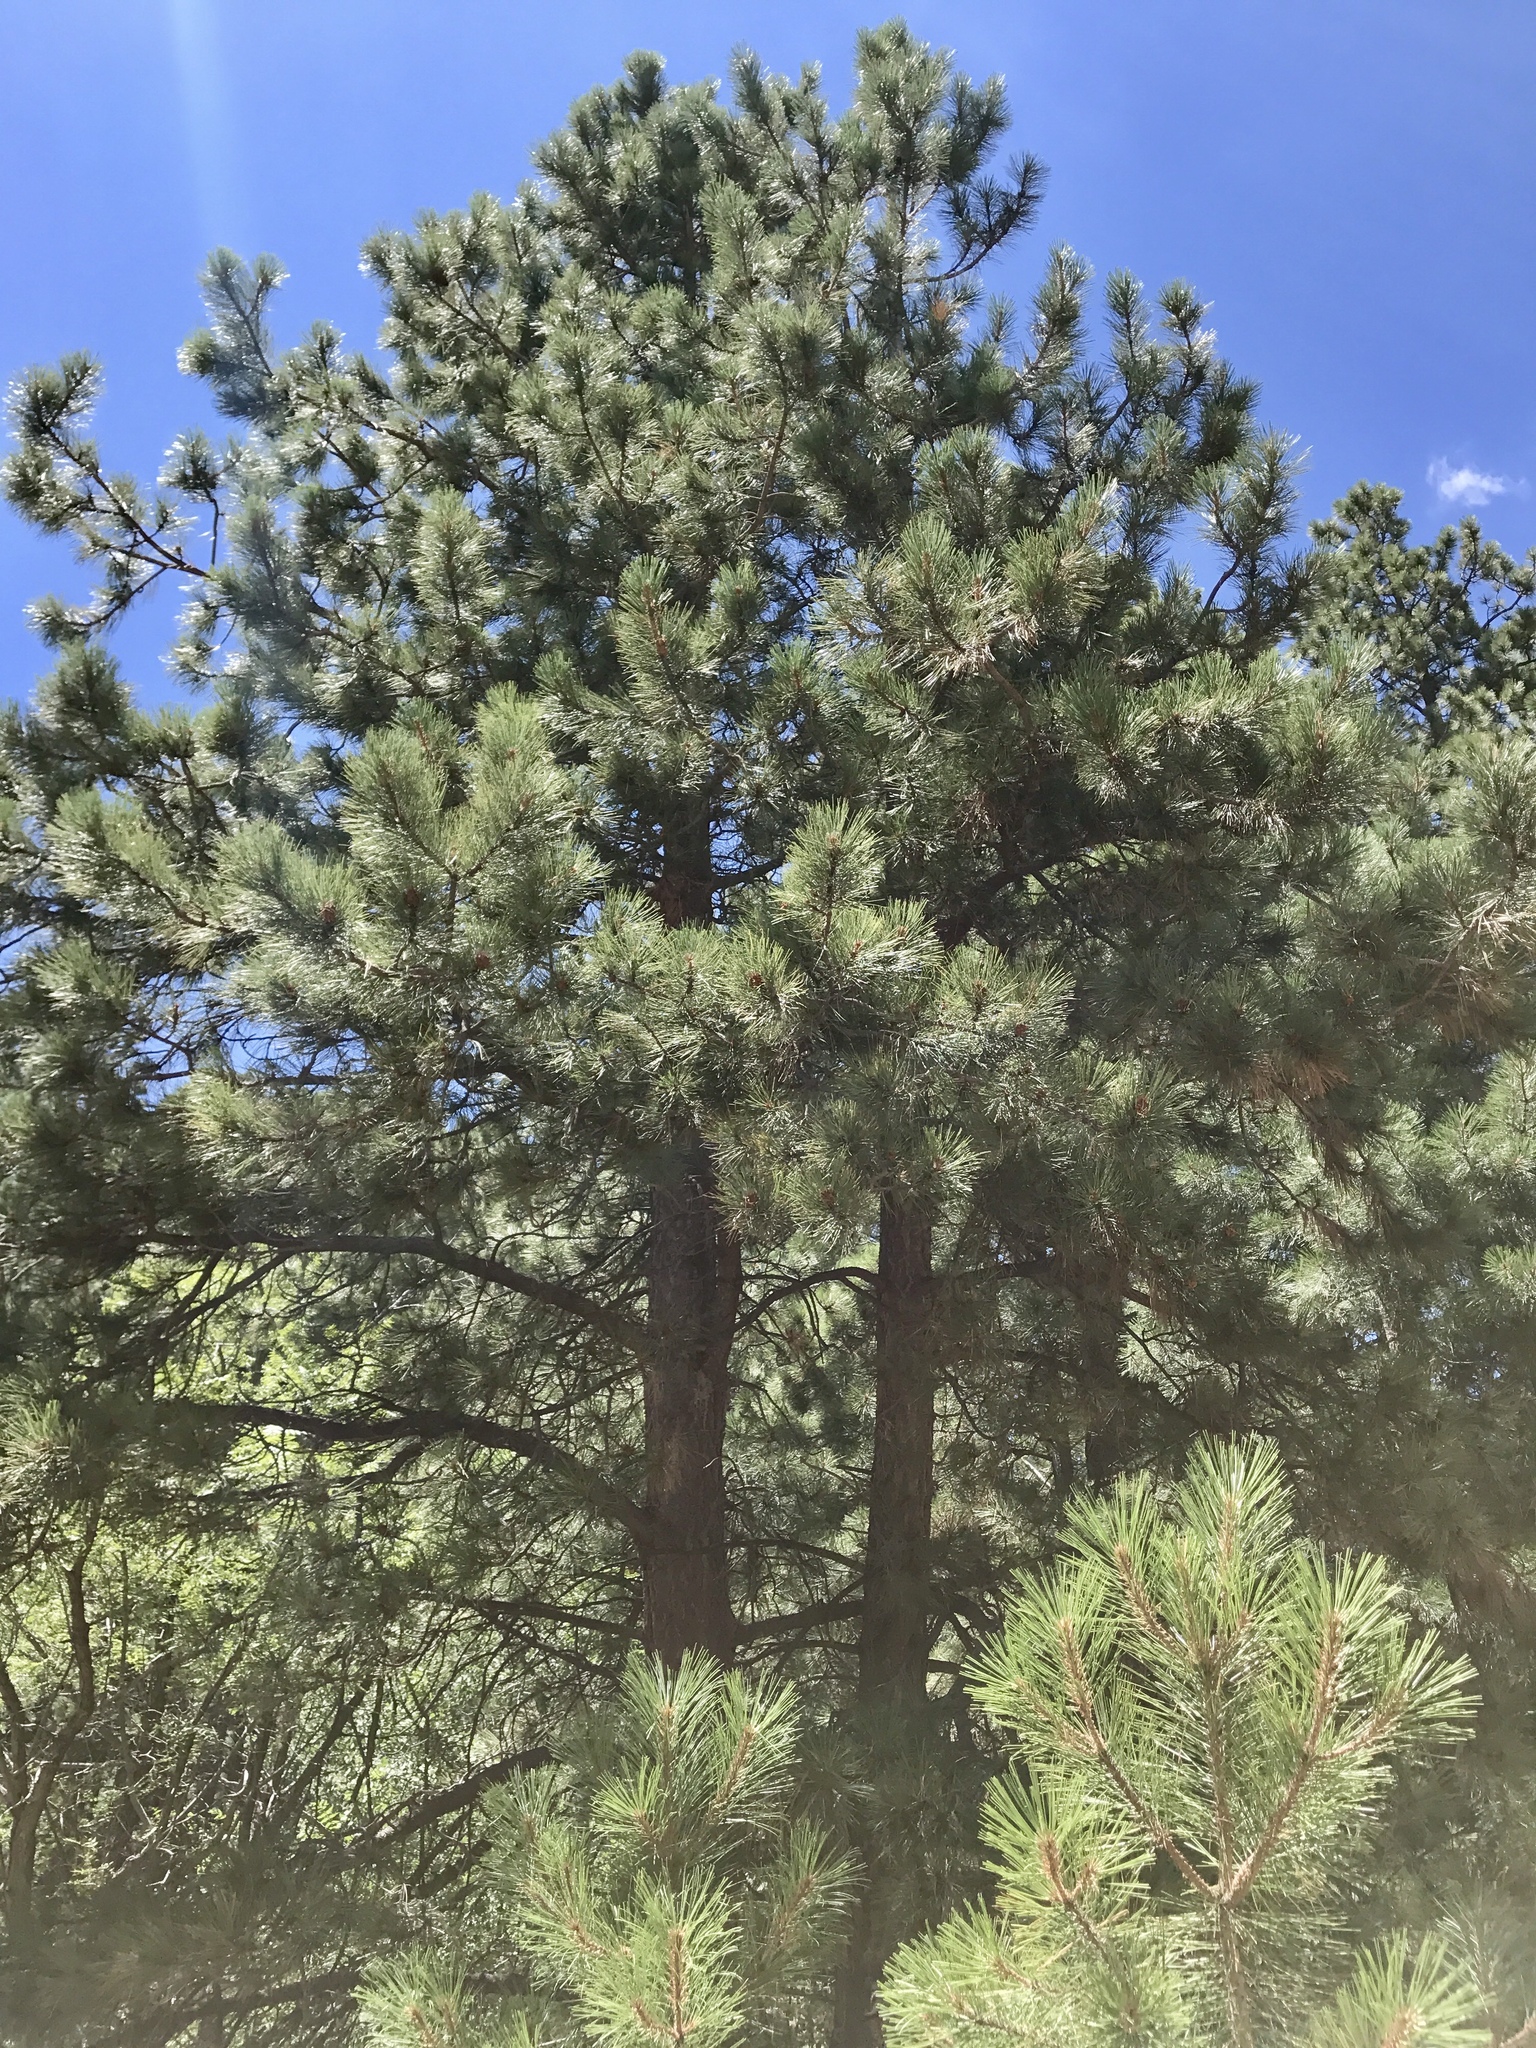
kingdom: Plantae
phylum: Tracheophyta
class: Pinopsida
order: Pinales
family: Pinaceae
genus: Pinus
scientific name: Pinus ponderosa
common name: Western yellow-pine
